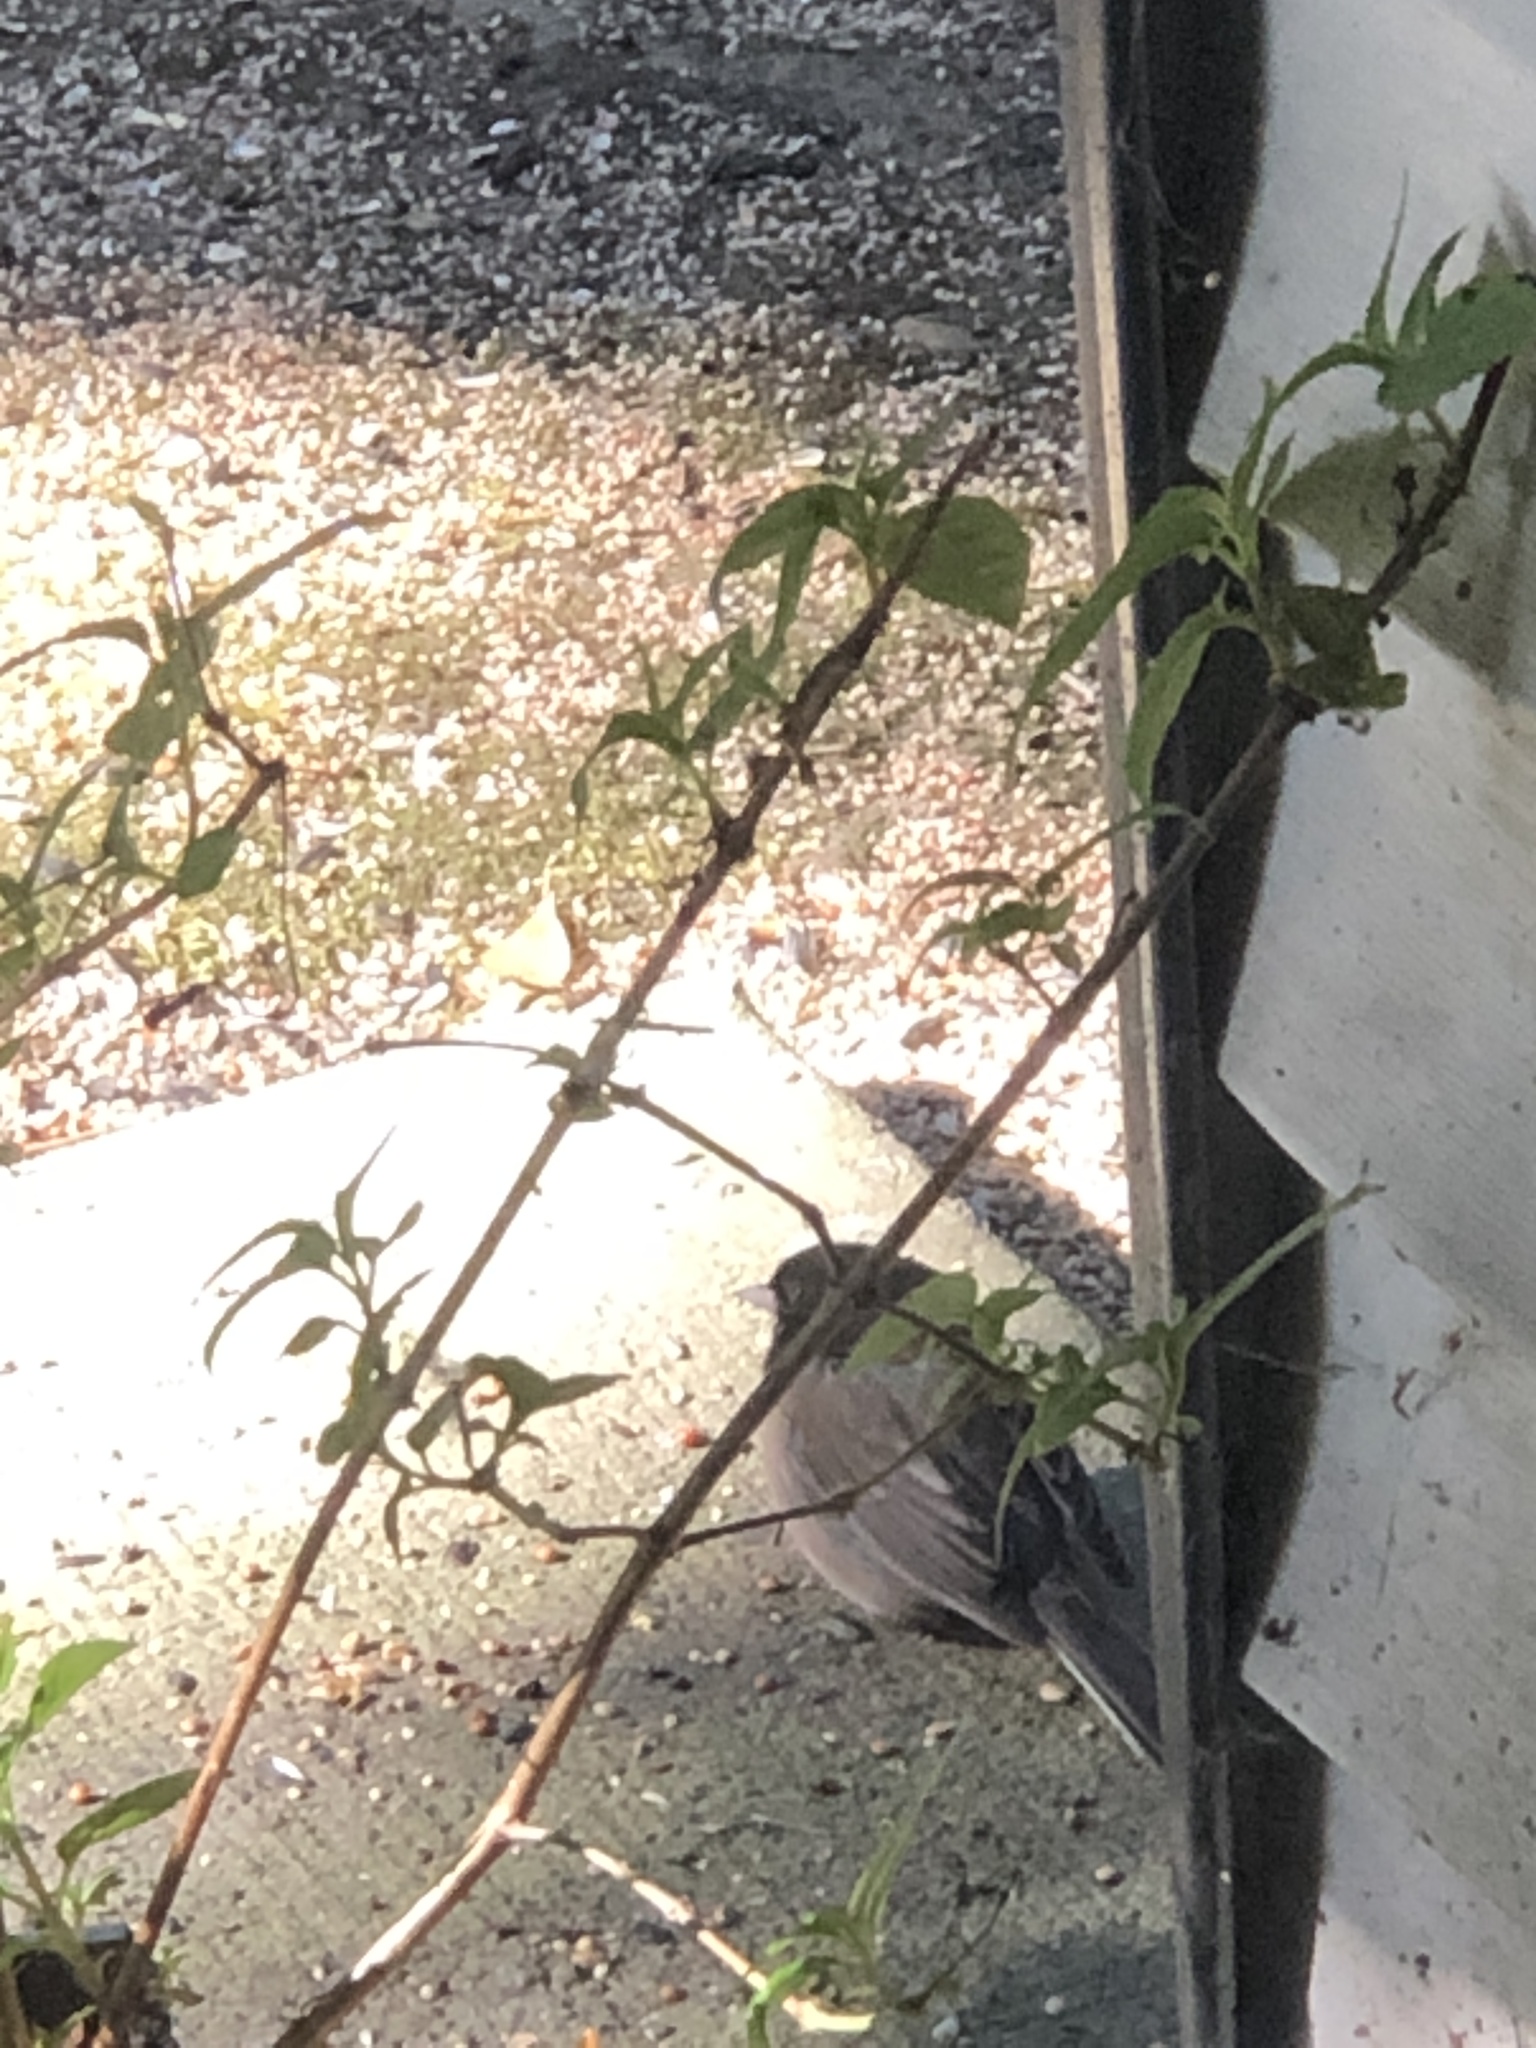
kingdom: Animalia
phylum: Chordata
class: Aves
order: Passeriformes
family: Passerellidae
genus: Junco
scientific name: Junco hyemalis
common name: Dark-eyed junco
